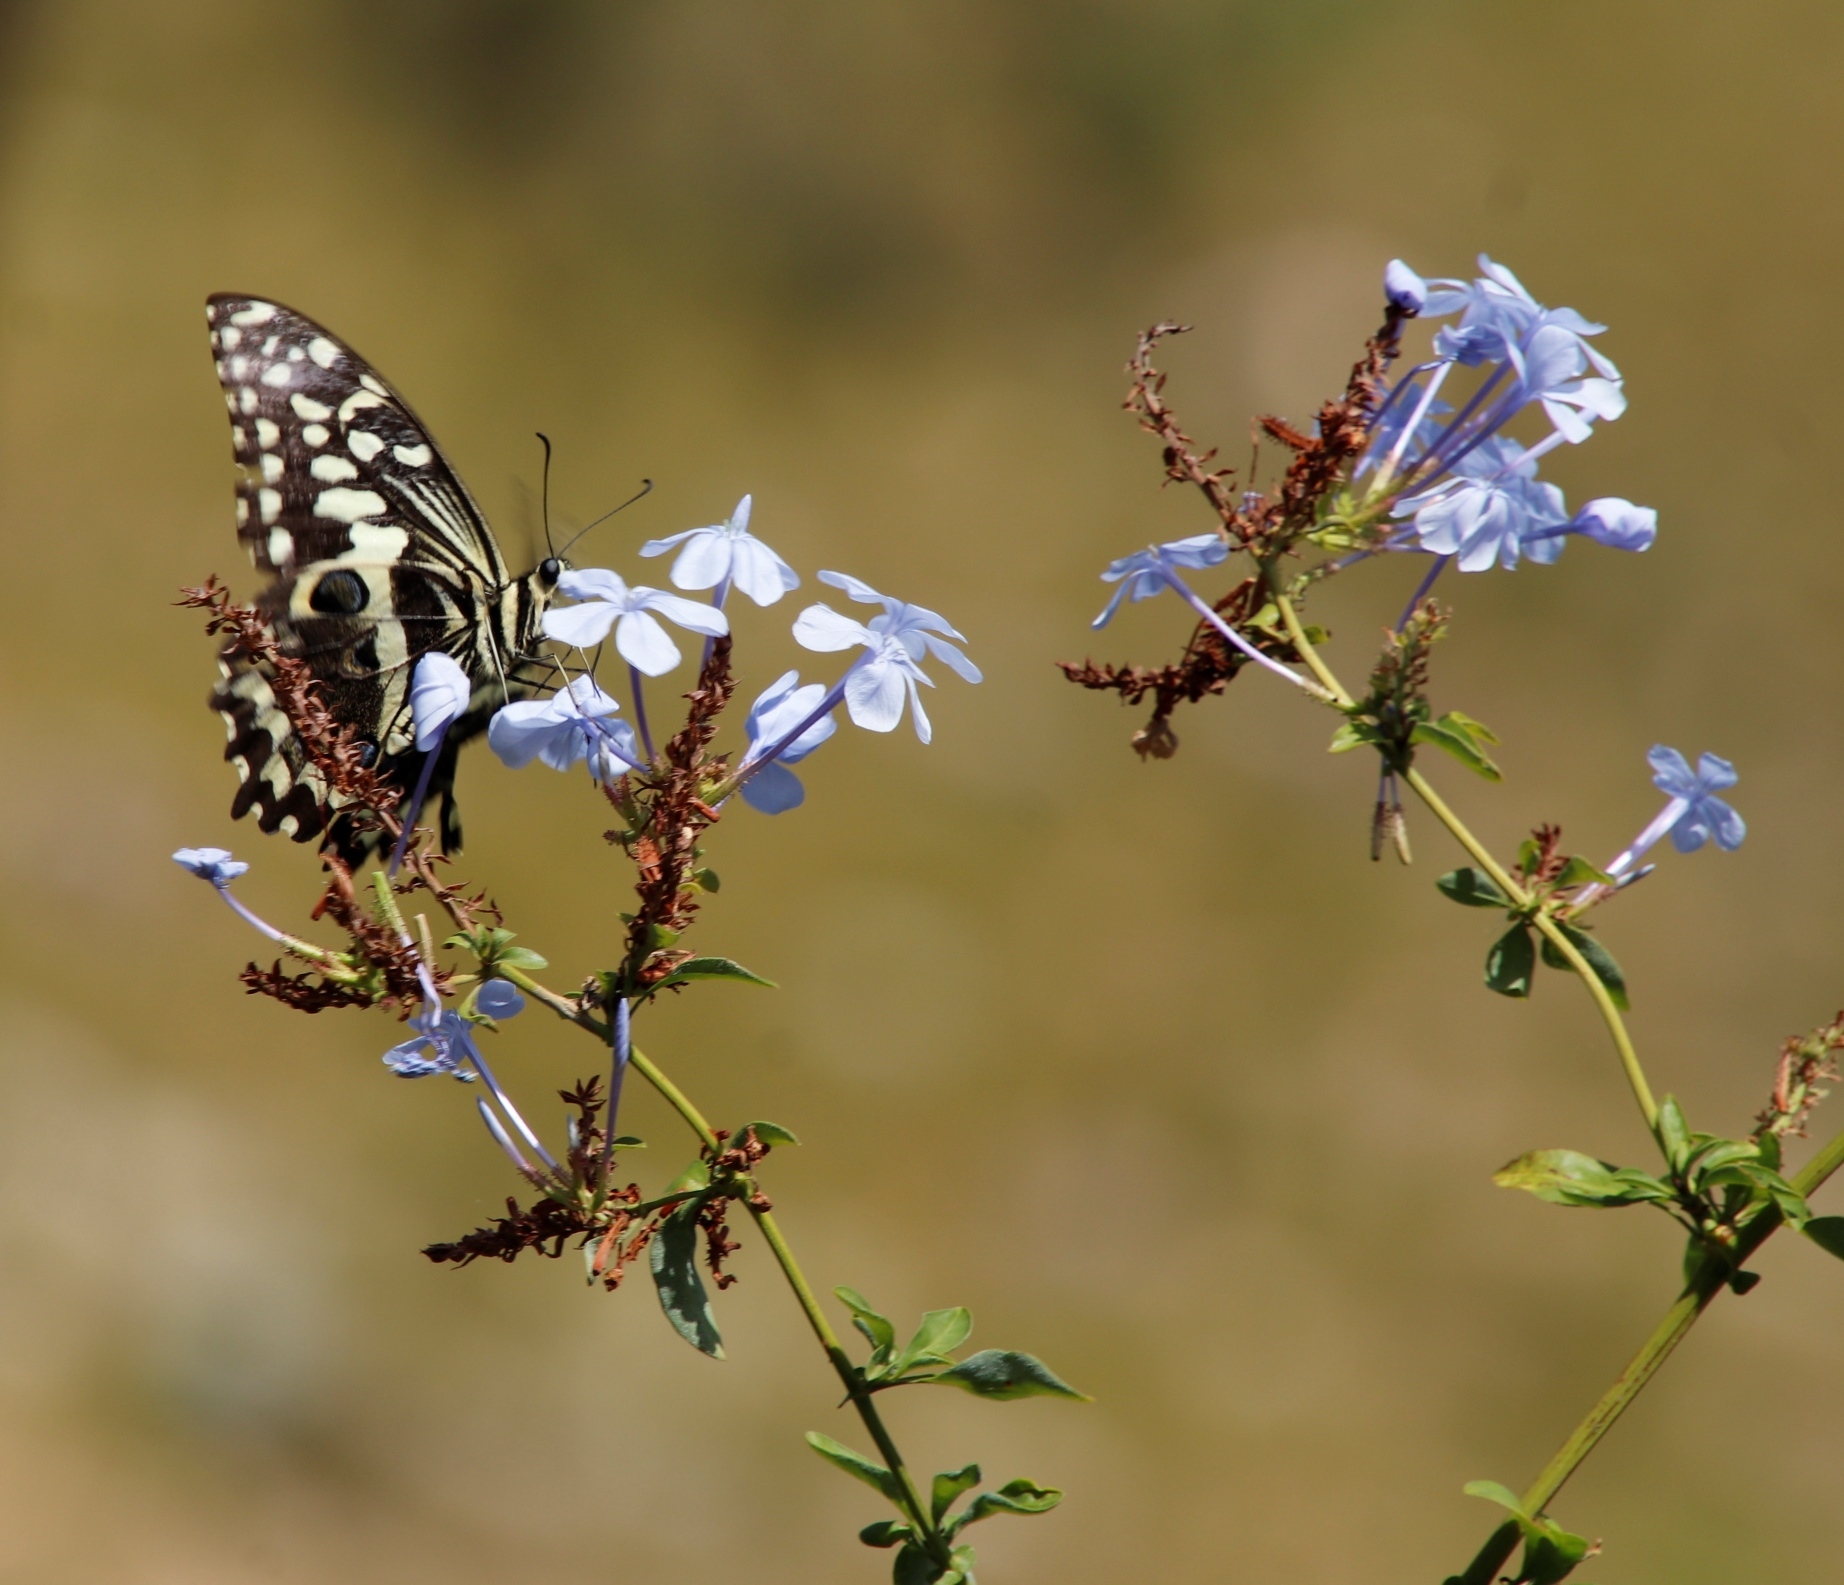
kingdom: Plantae
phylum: Tracheophyta
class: Magnoliopsida
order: Caryophyllales
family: Plumbaginaceae
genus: Plumbago
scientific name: Plumbago auriculata
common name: Cape leadwort
